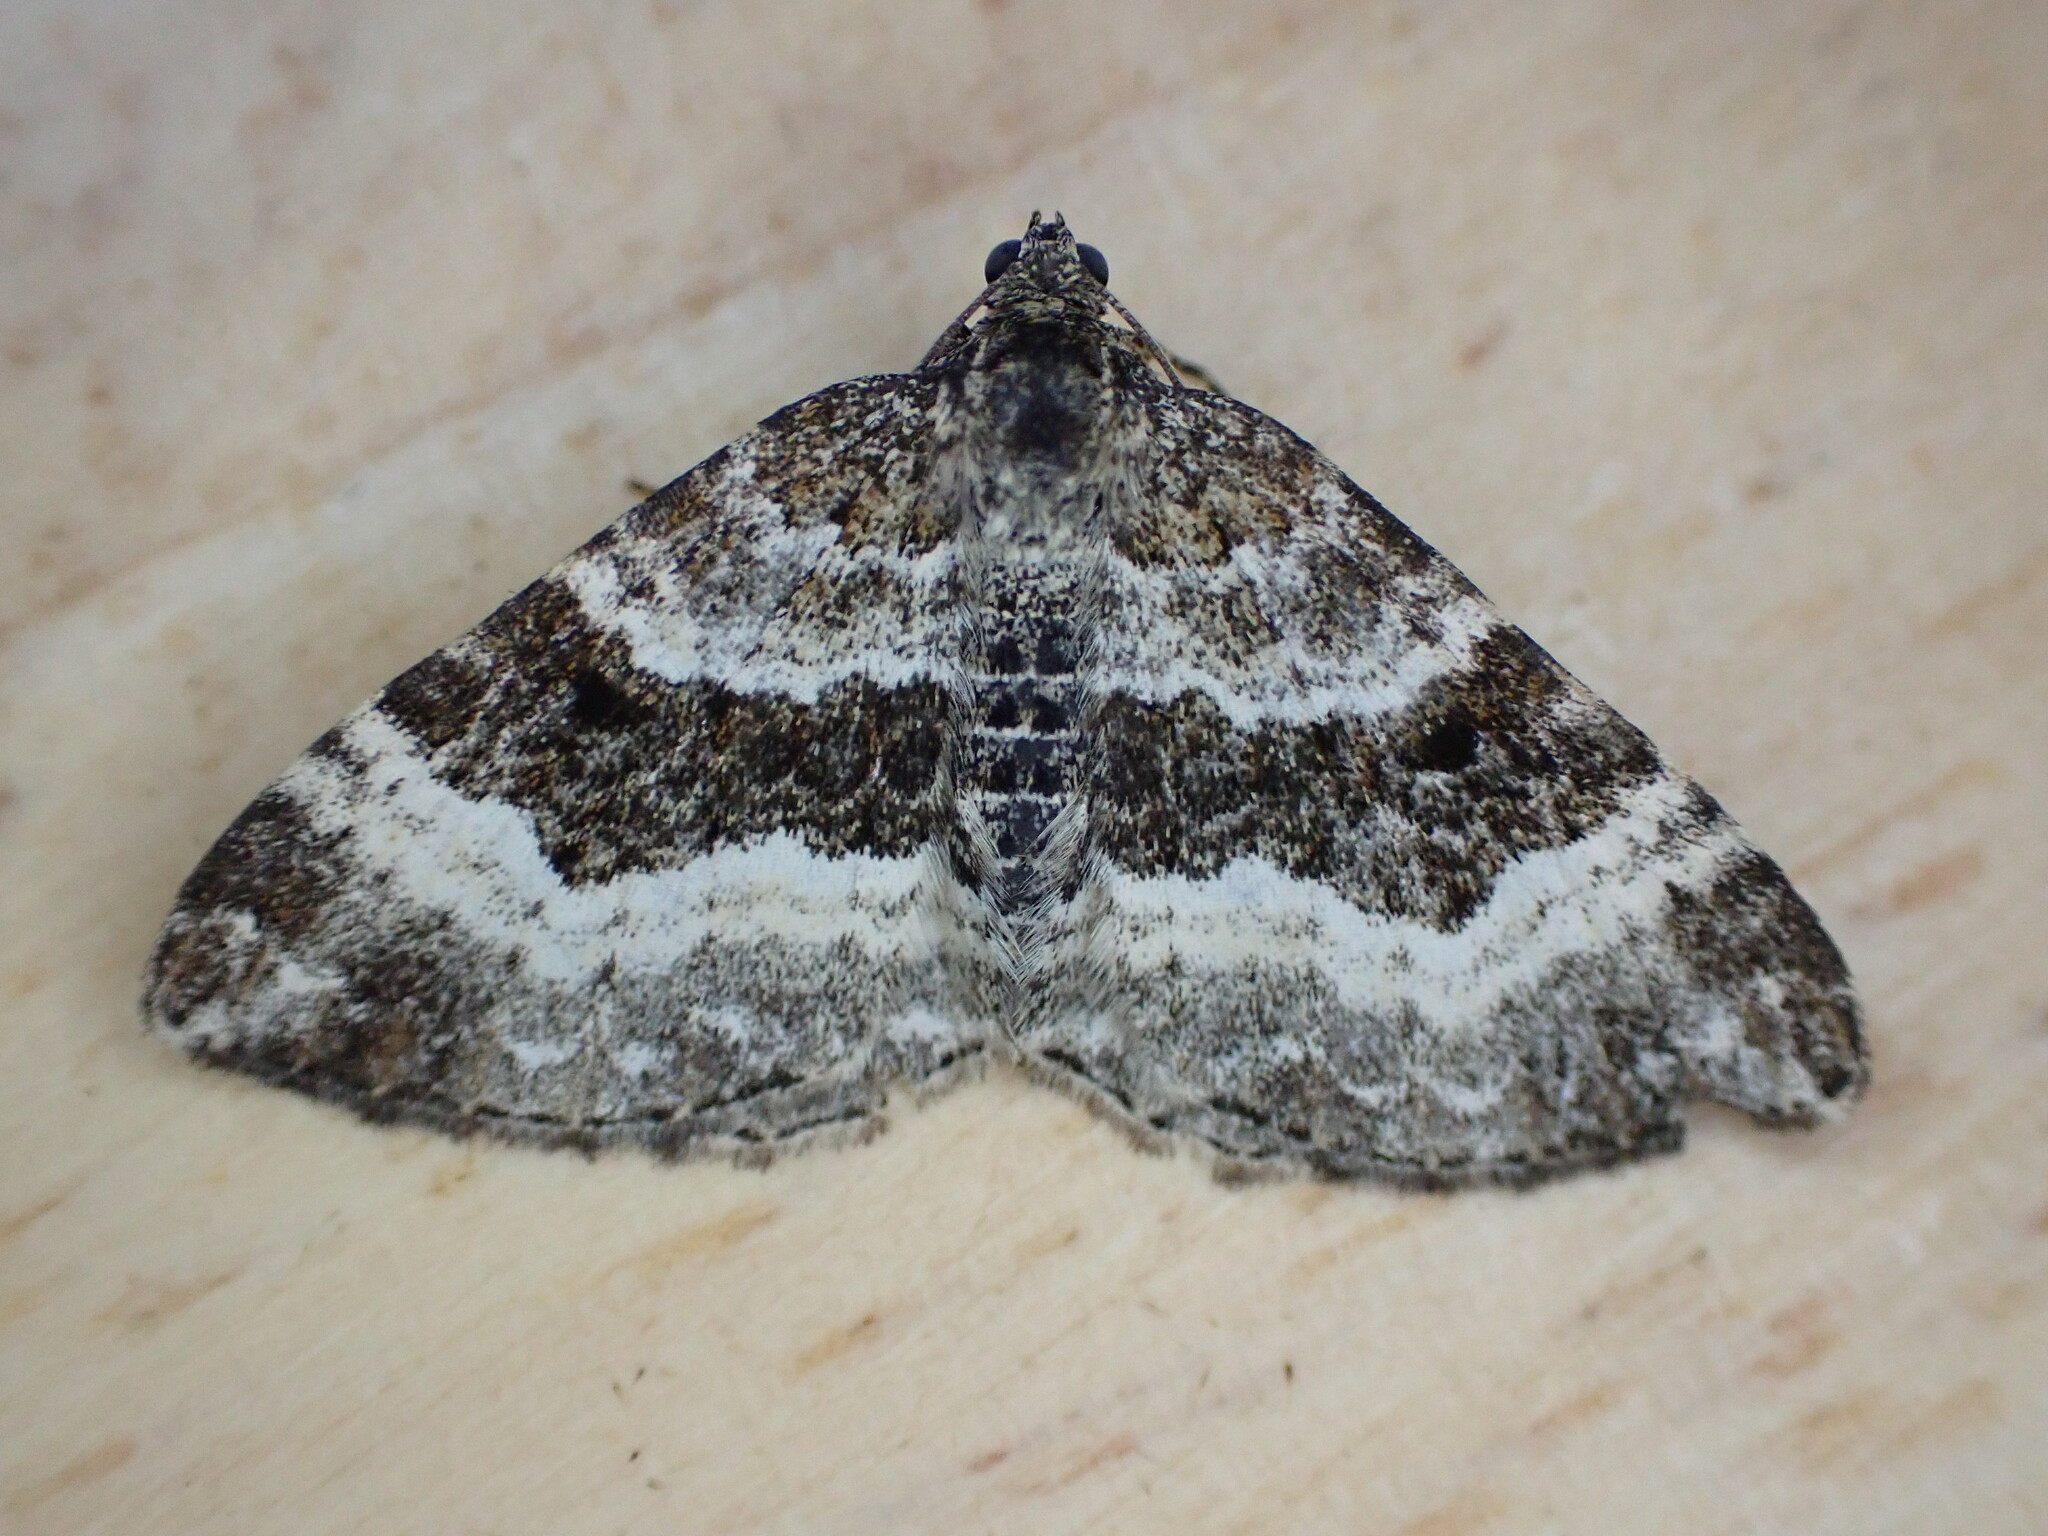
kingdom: Animalia
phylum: Arthropoda
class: Insecta
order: Lepidoptera
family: Geometridae
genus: Epirrhoe
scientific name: Epirrhoe alternata
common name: Common carpet
